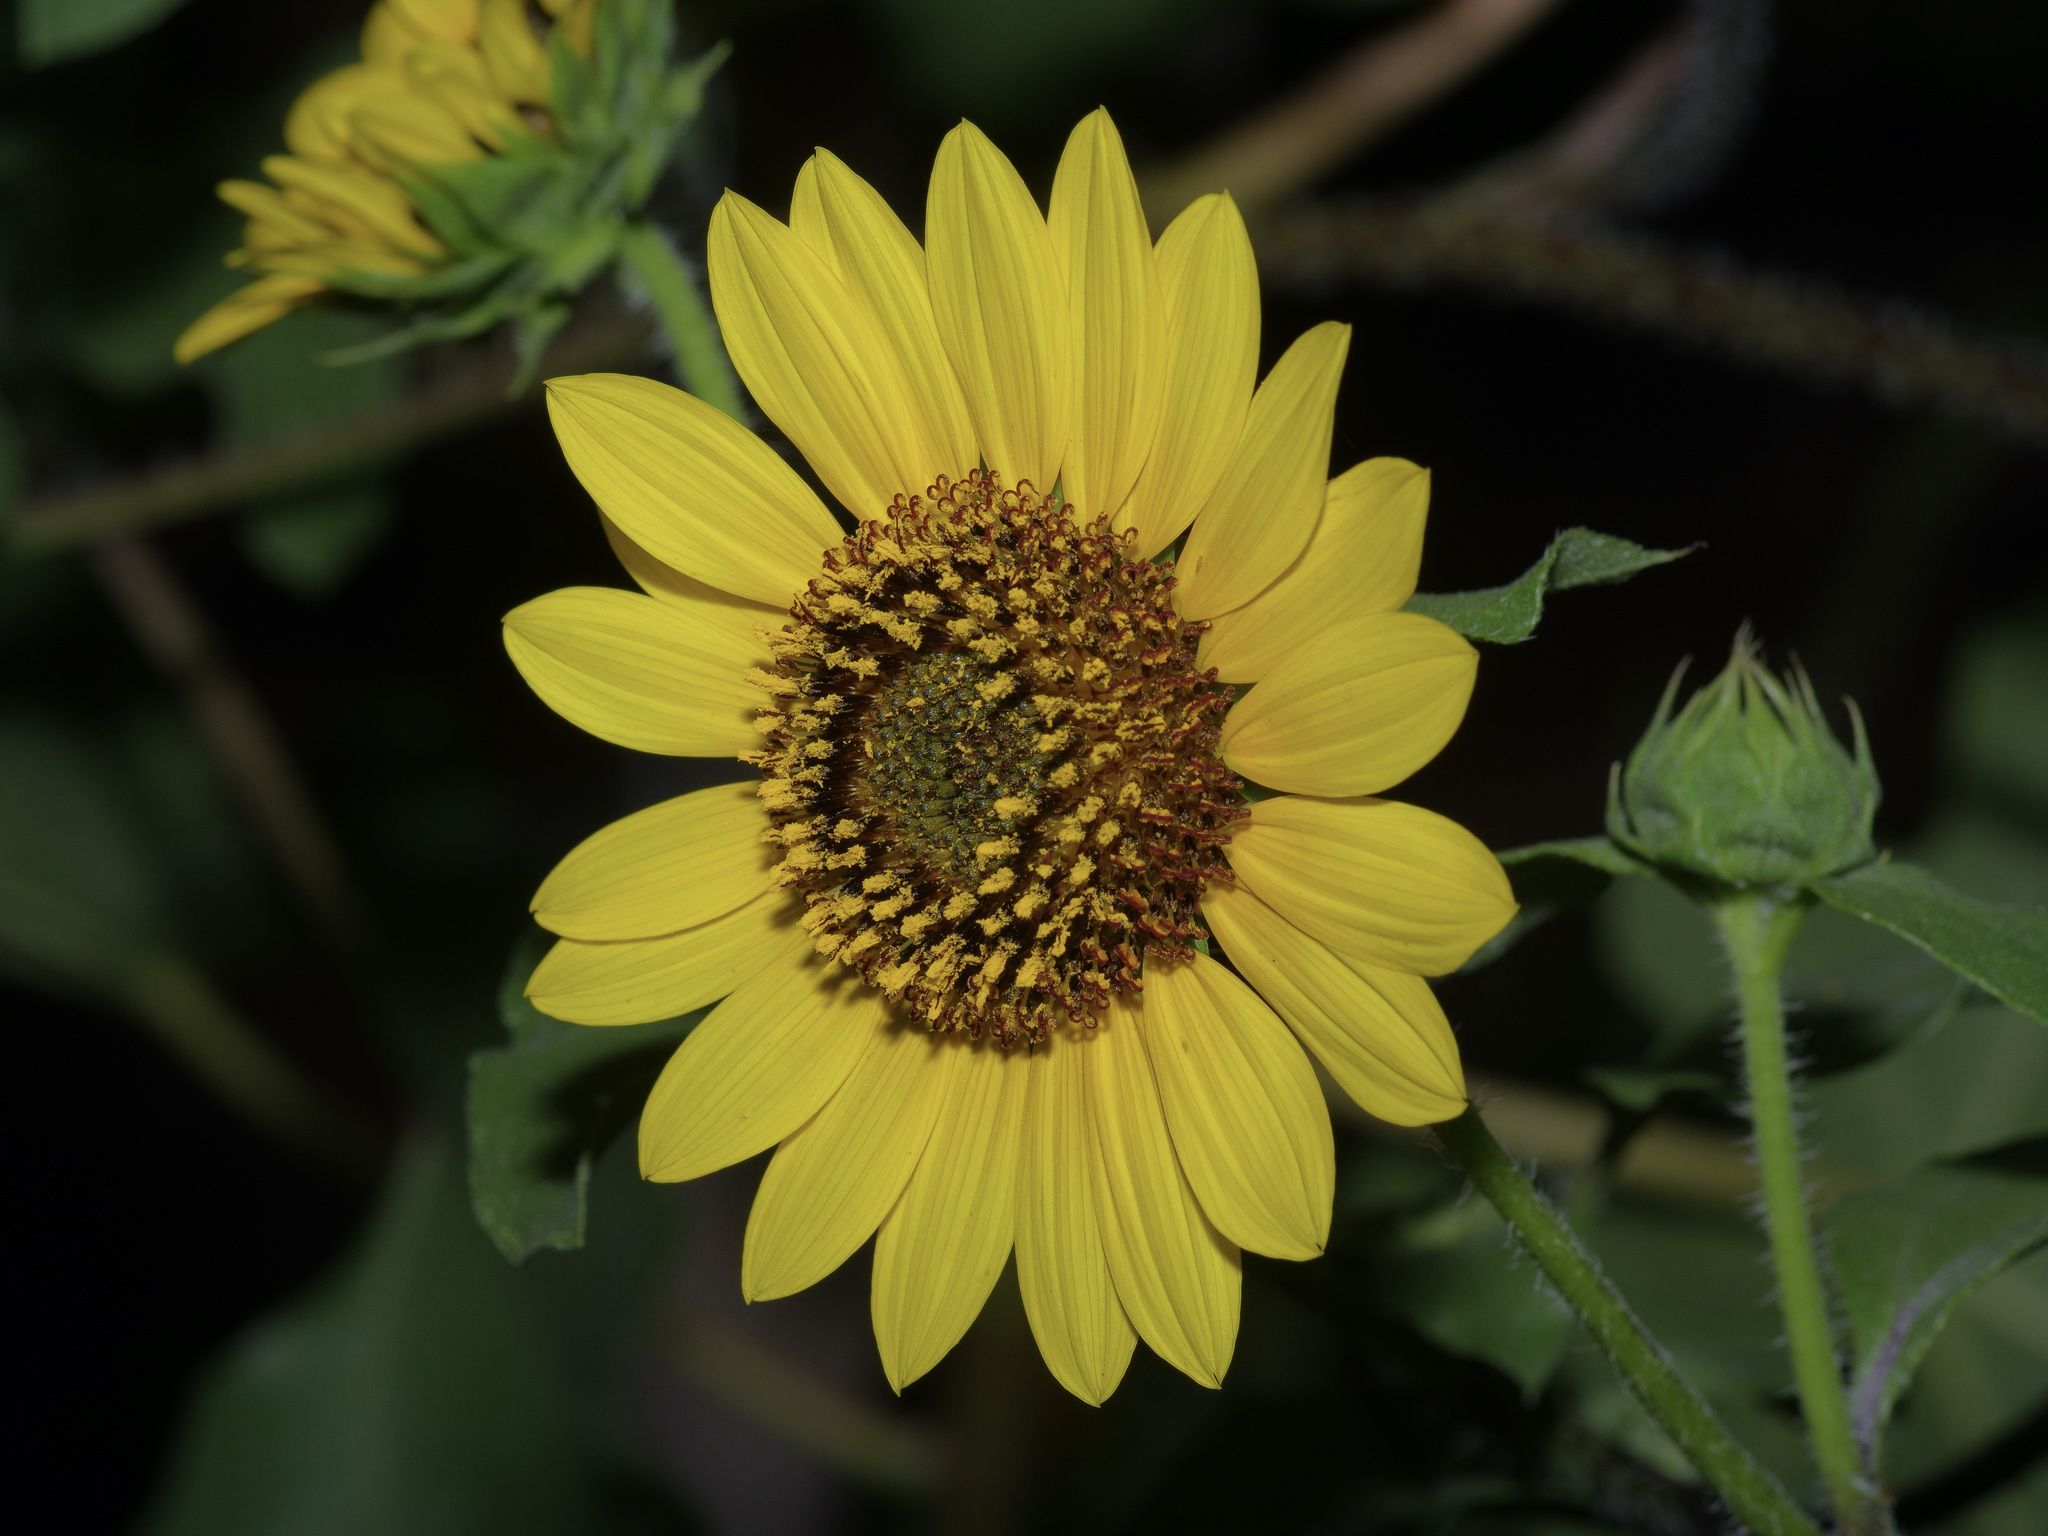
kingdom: Plantae
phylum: Tracheophyta
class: Magnoliopsida
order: Asterales
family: Asteraceae
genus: Helianthus
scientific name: Helianthus annuus
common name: Sunflower
